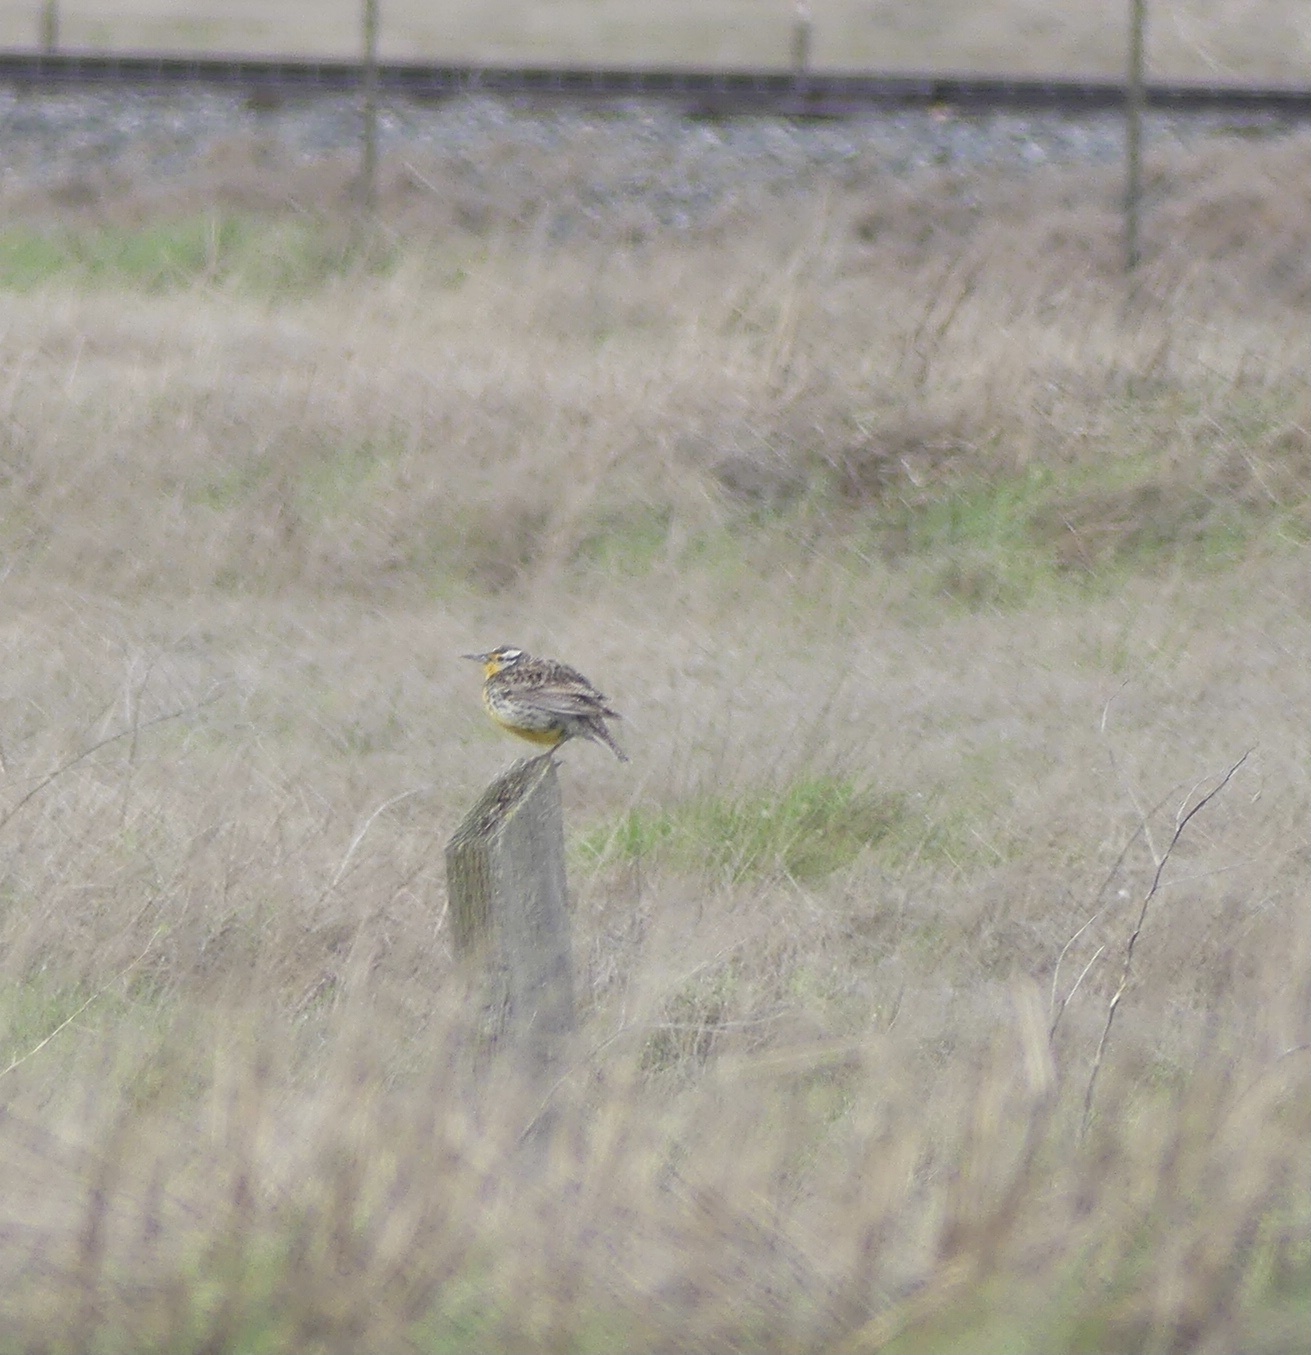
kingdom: Animalia
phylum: Chordata
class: Aves
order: Passeriformes
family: Icteridae
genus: Sturnella
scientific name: Sturnella neglecta
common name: Western meadowlark
